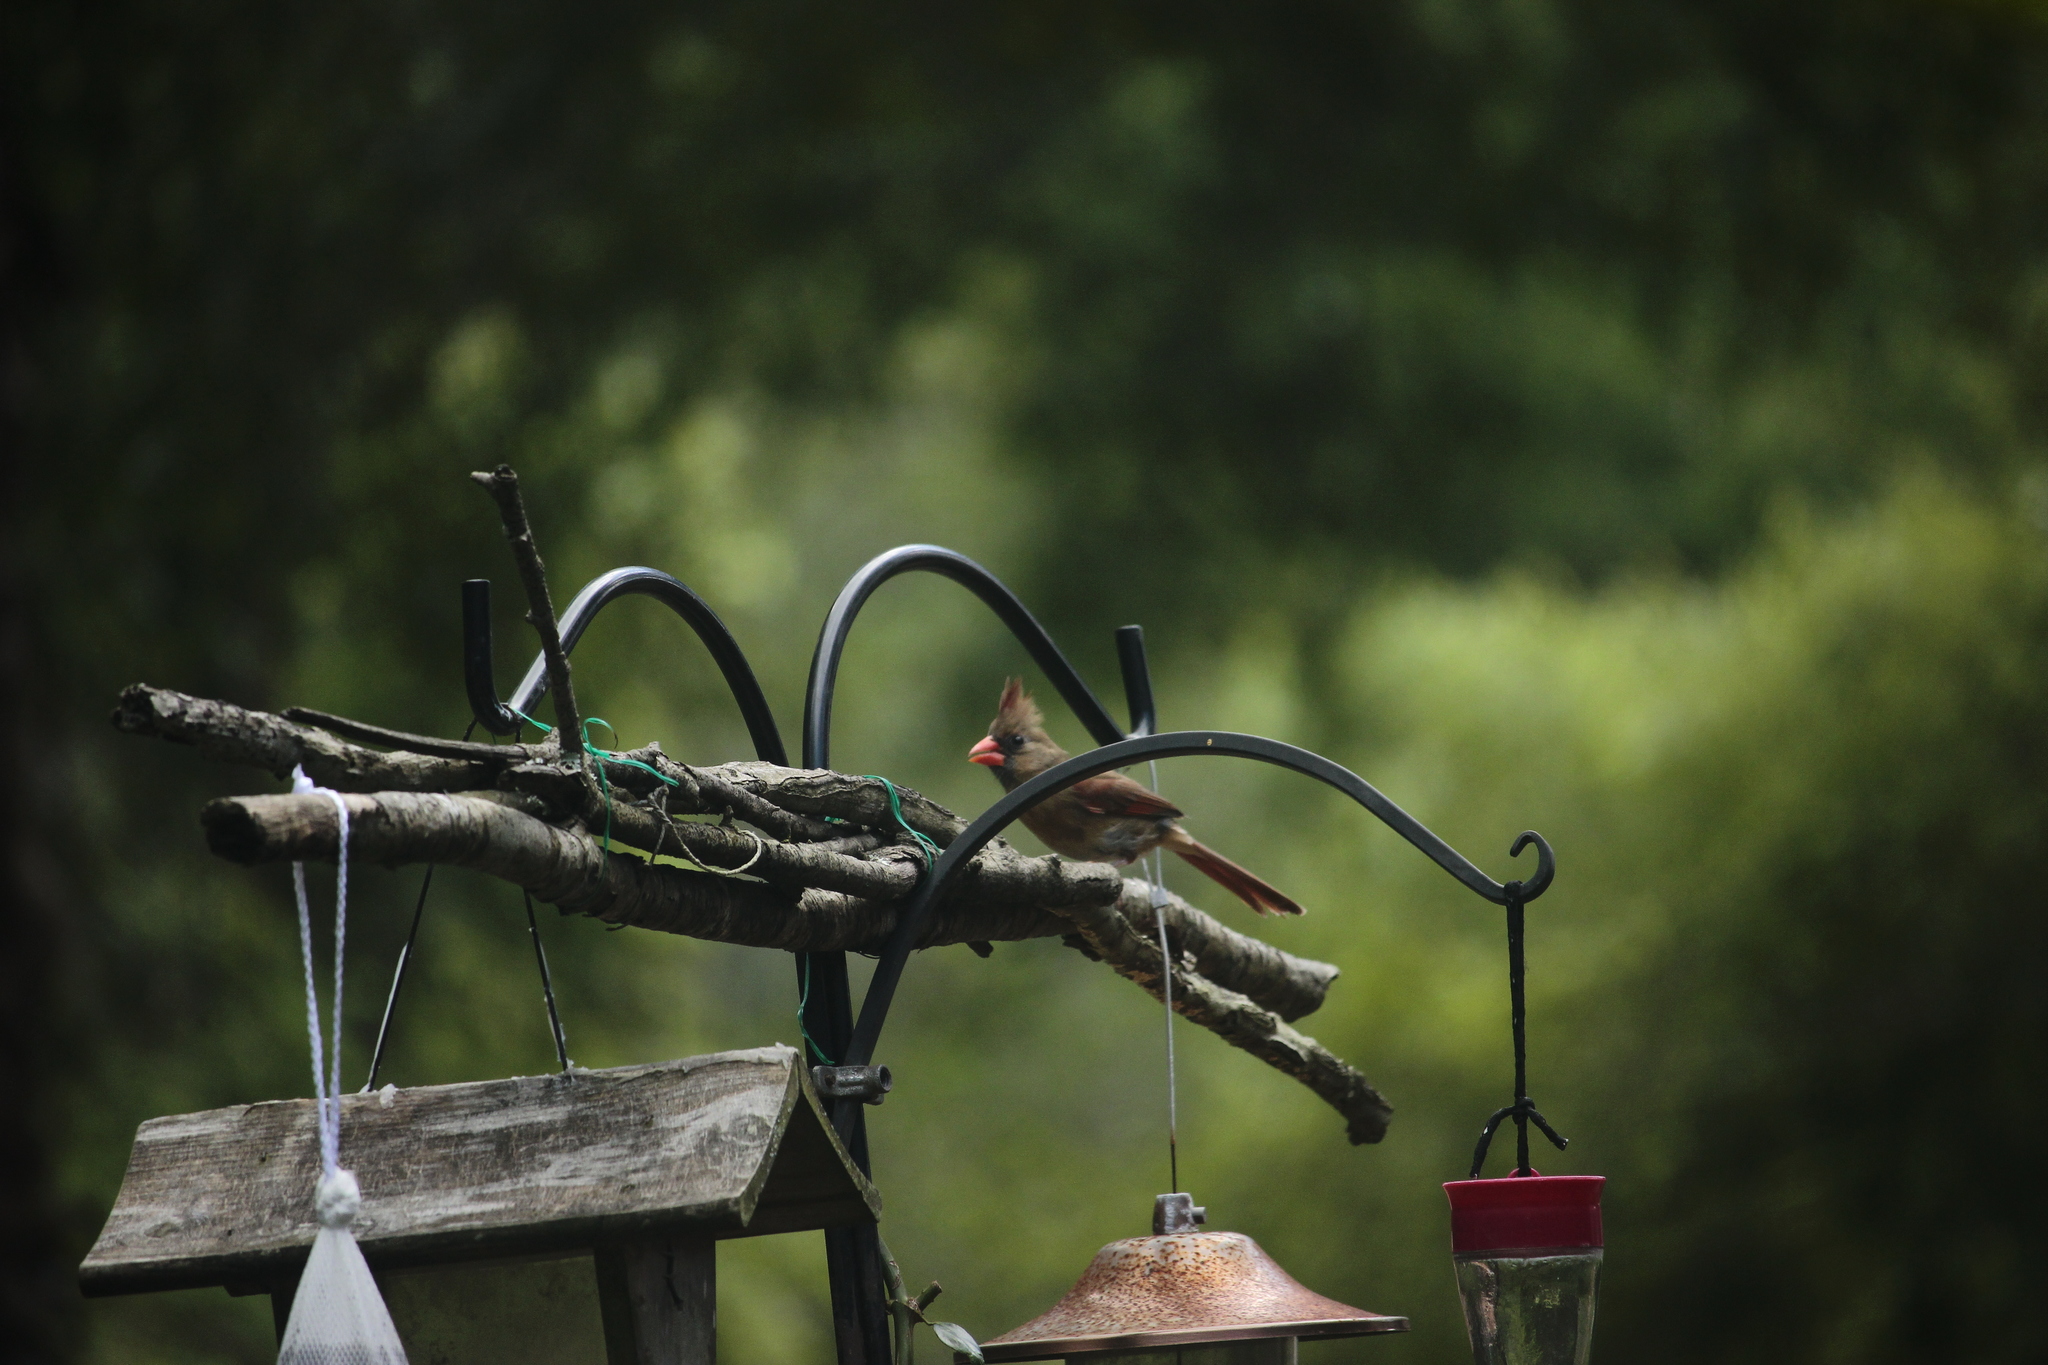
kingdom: Animalia
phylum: Chordata
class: Aves
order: Passeriformes
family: Cardinalidae
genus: Cardinalis
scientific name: Cardinalis cardinalis
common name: Northern cardinal
